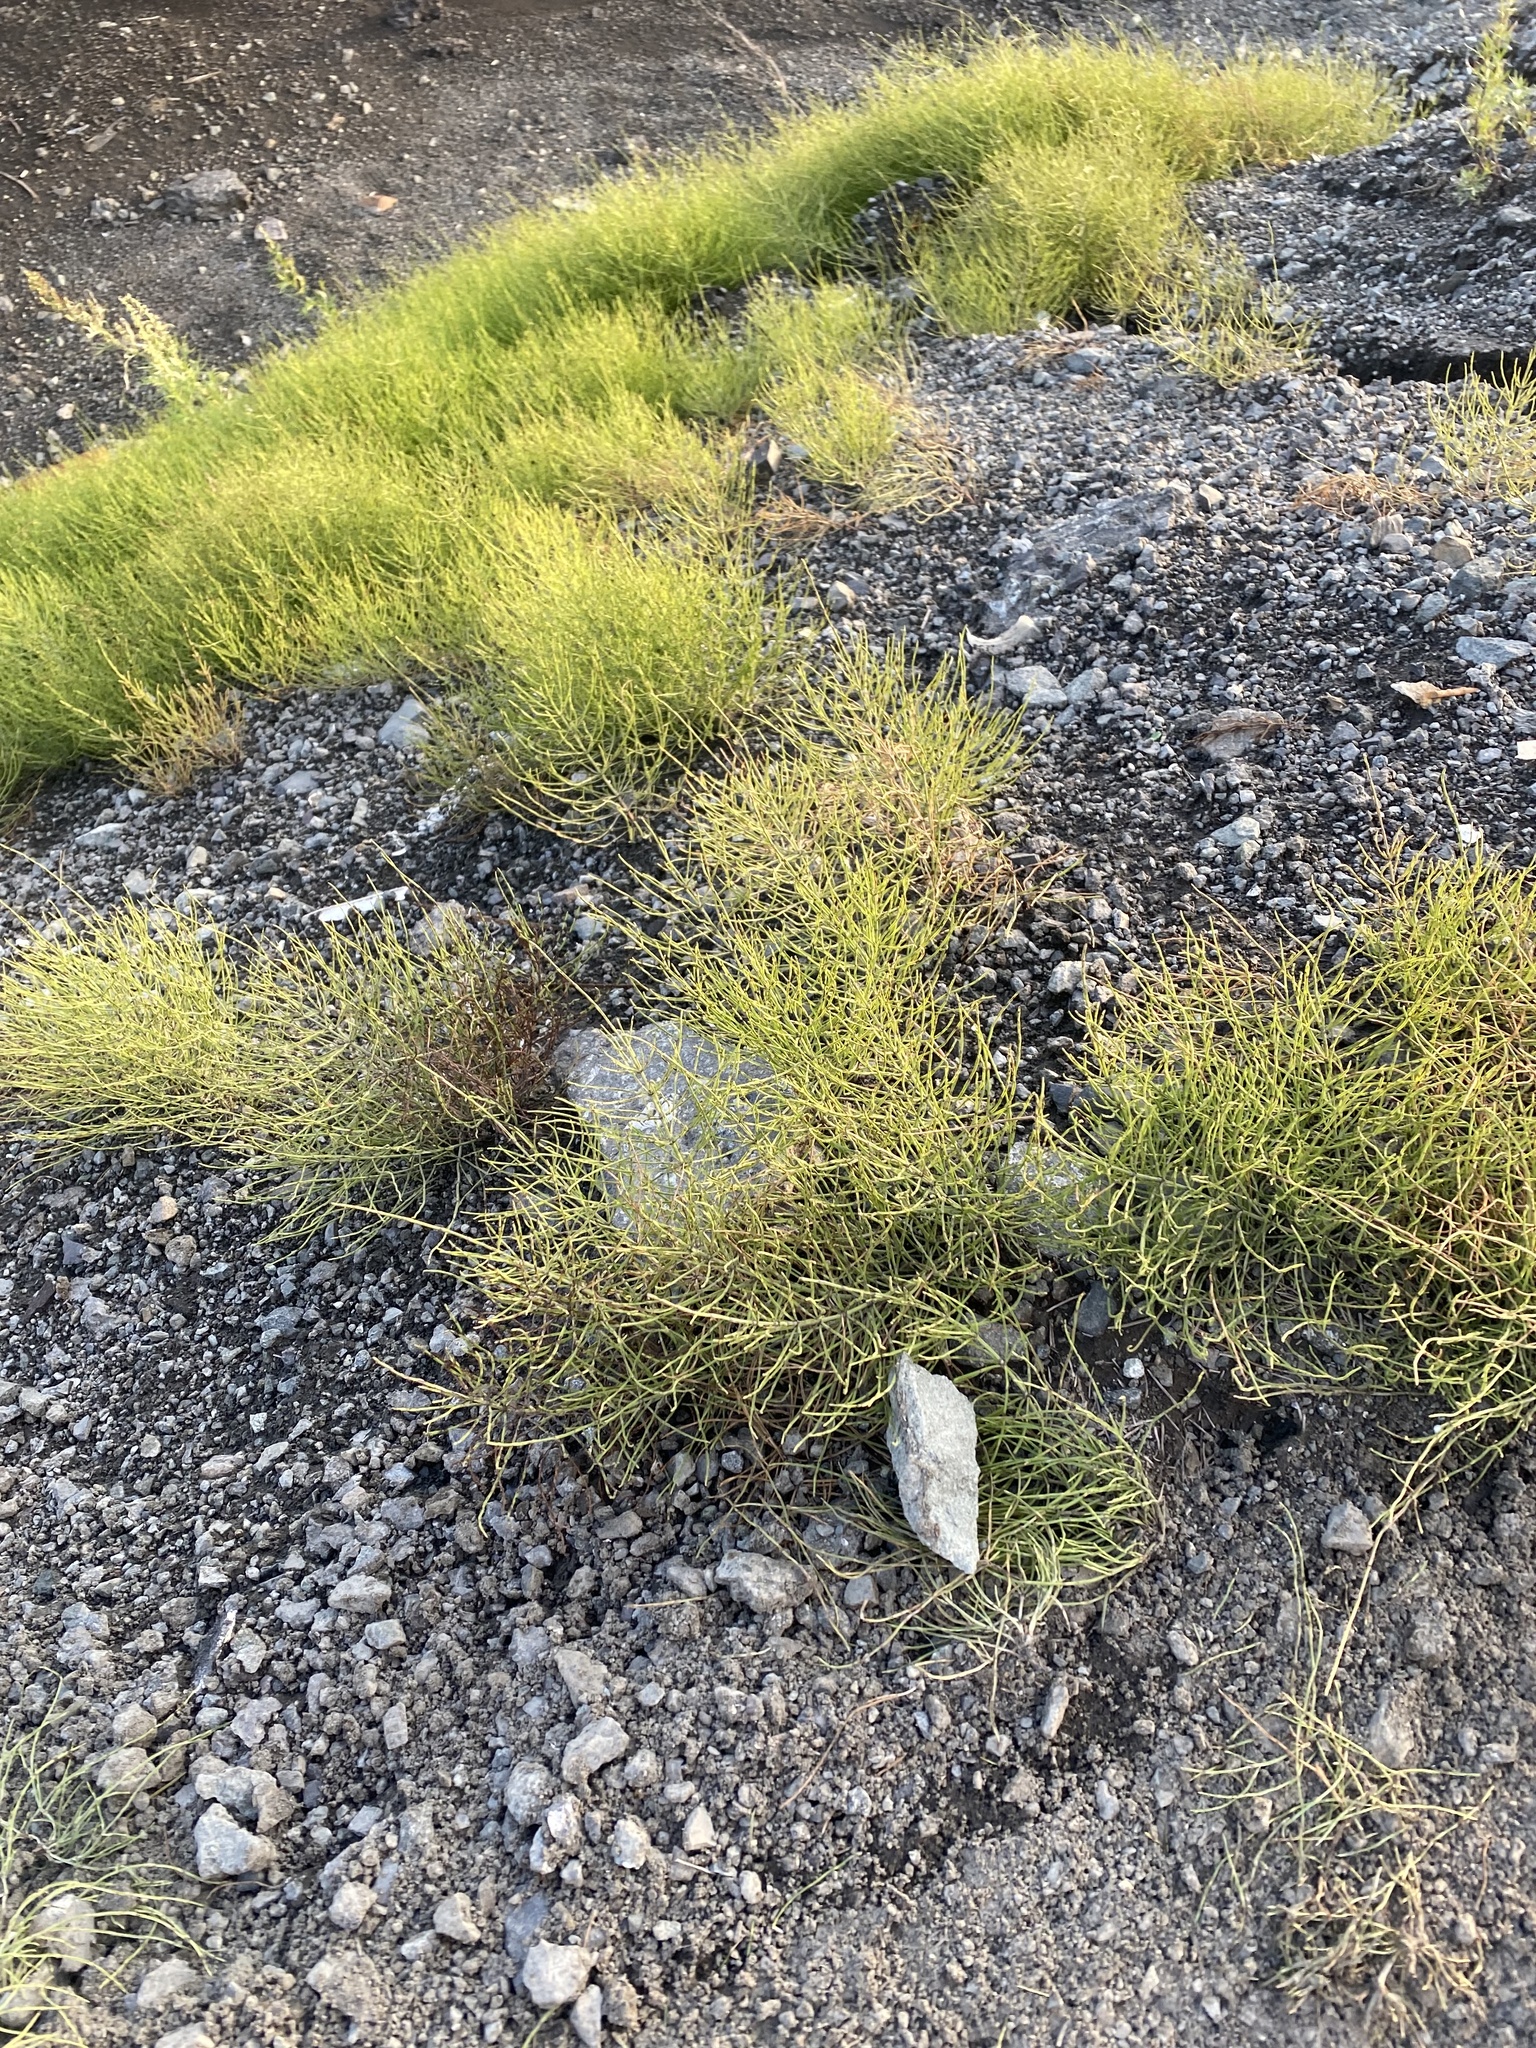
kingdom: Plantae
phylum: Tracheophyta
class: Polypodiopsida
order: Equisetales
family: Equisetaceae
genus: Equisetum
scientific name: Equisetum arvense
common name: Field horsetail
